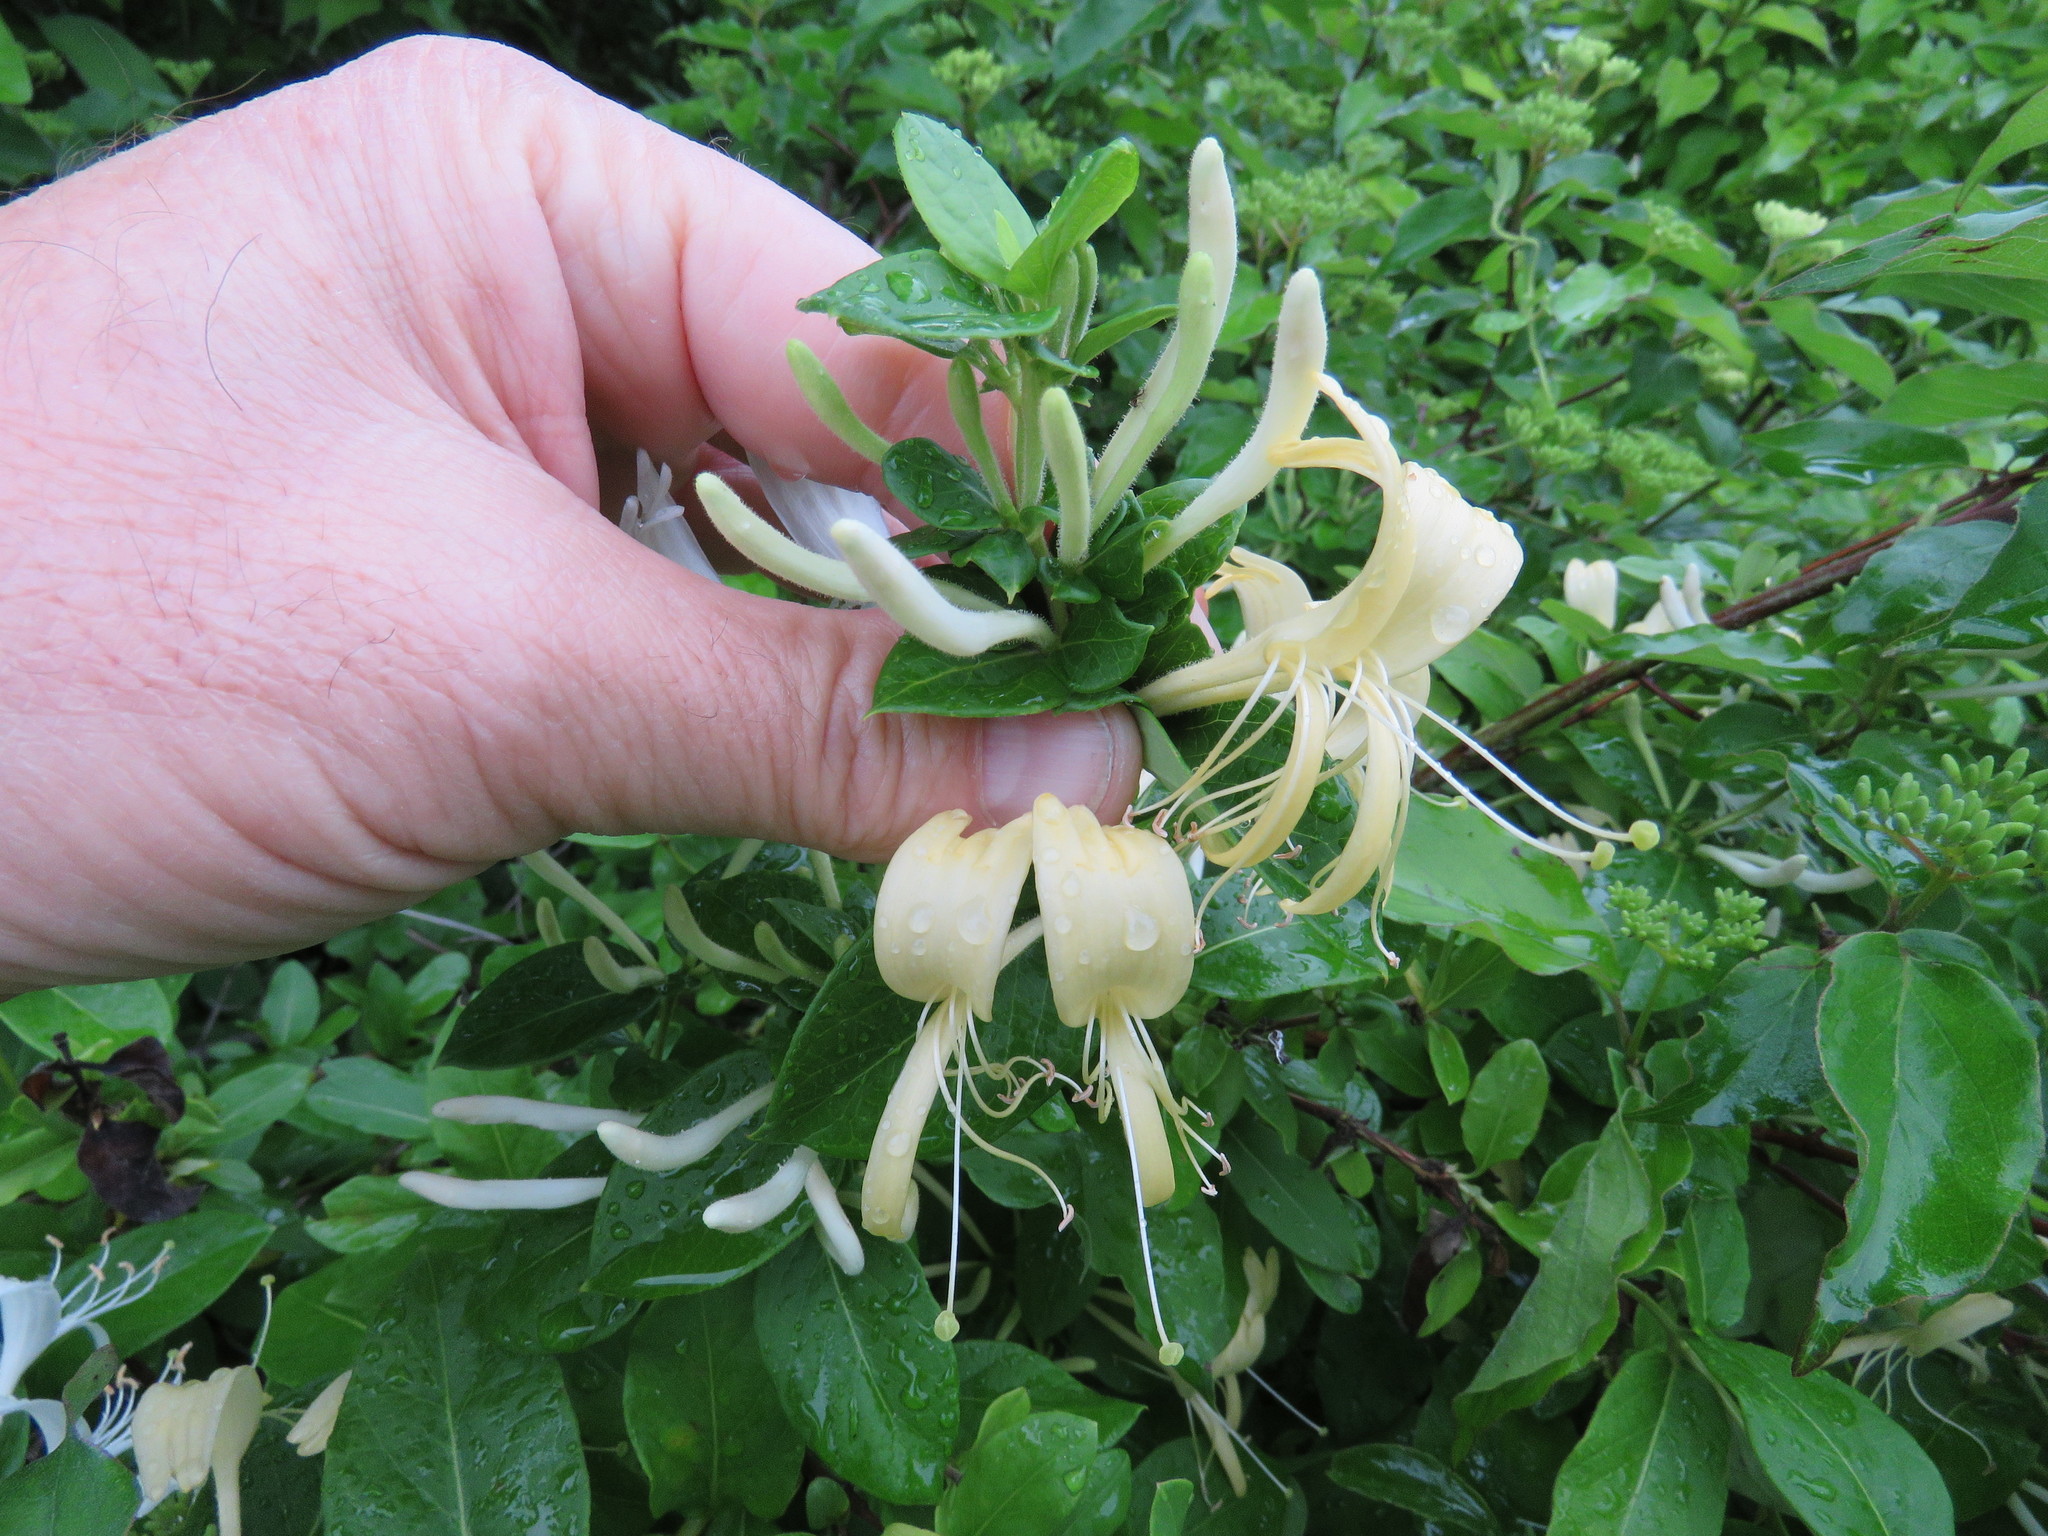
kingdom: Plantae
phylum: Tracheophyta
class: Magnoliopsida
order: Dipsacales
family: Caprifoliaceae
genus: Lonicera
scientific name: Lonicera japonica
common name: Japanese honeysuckle
